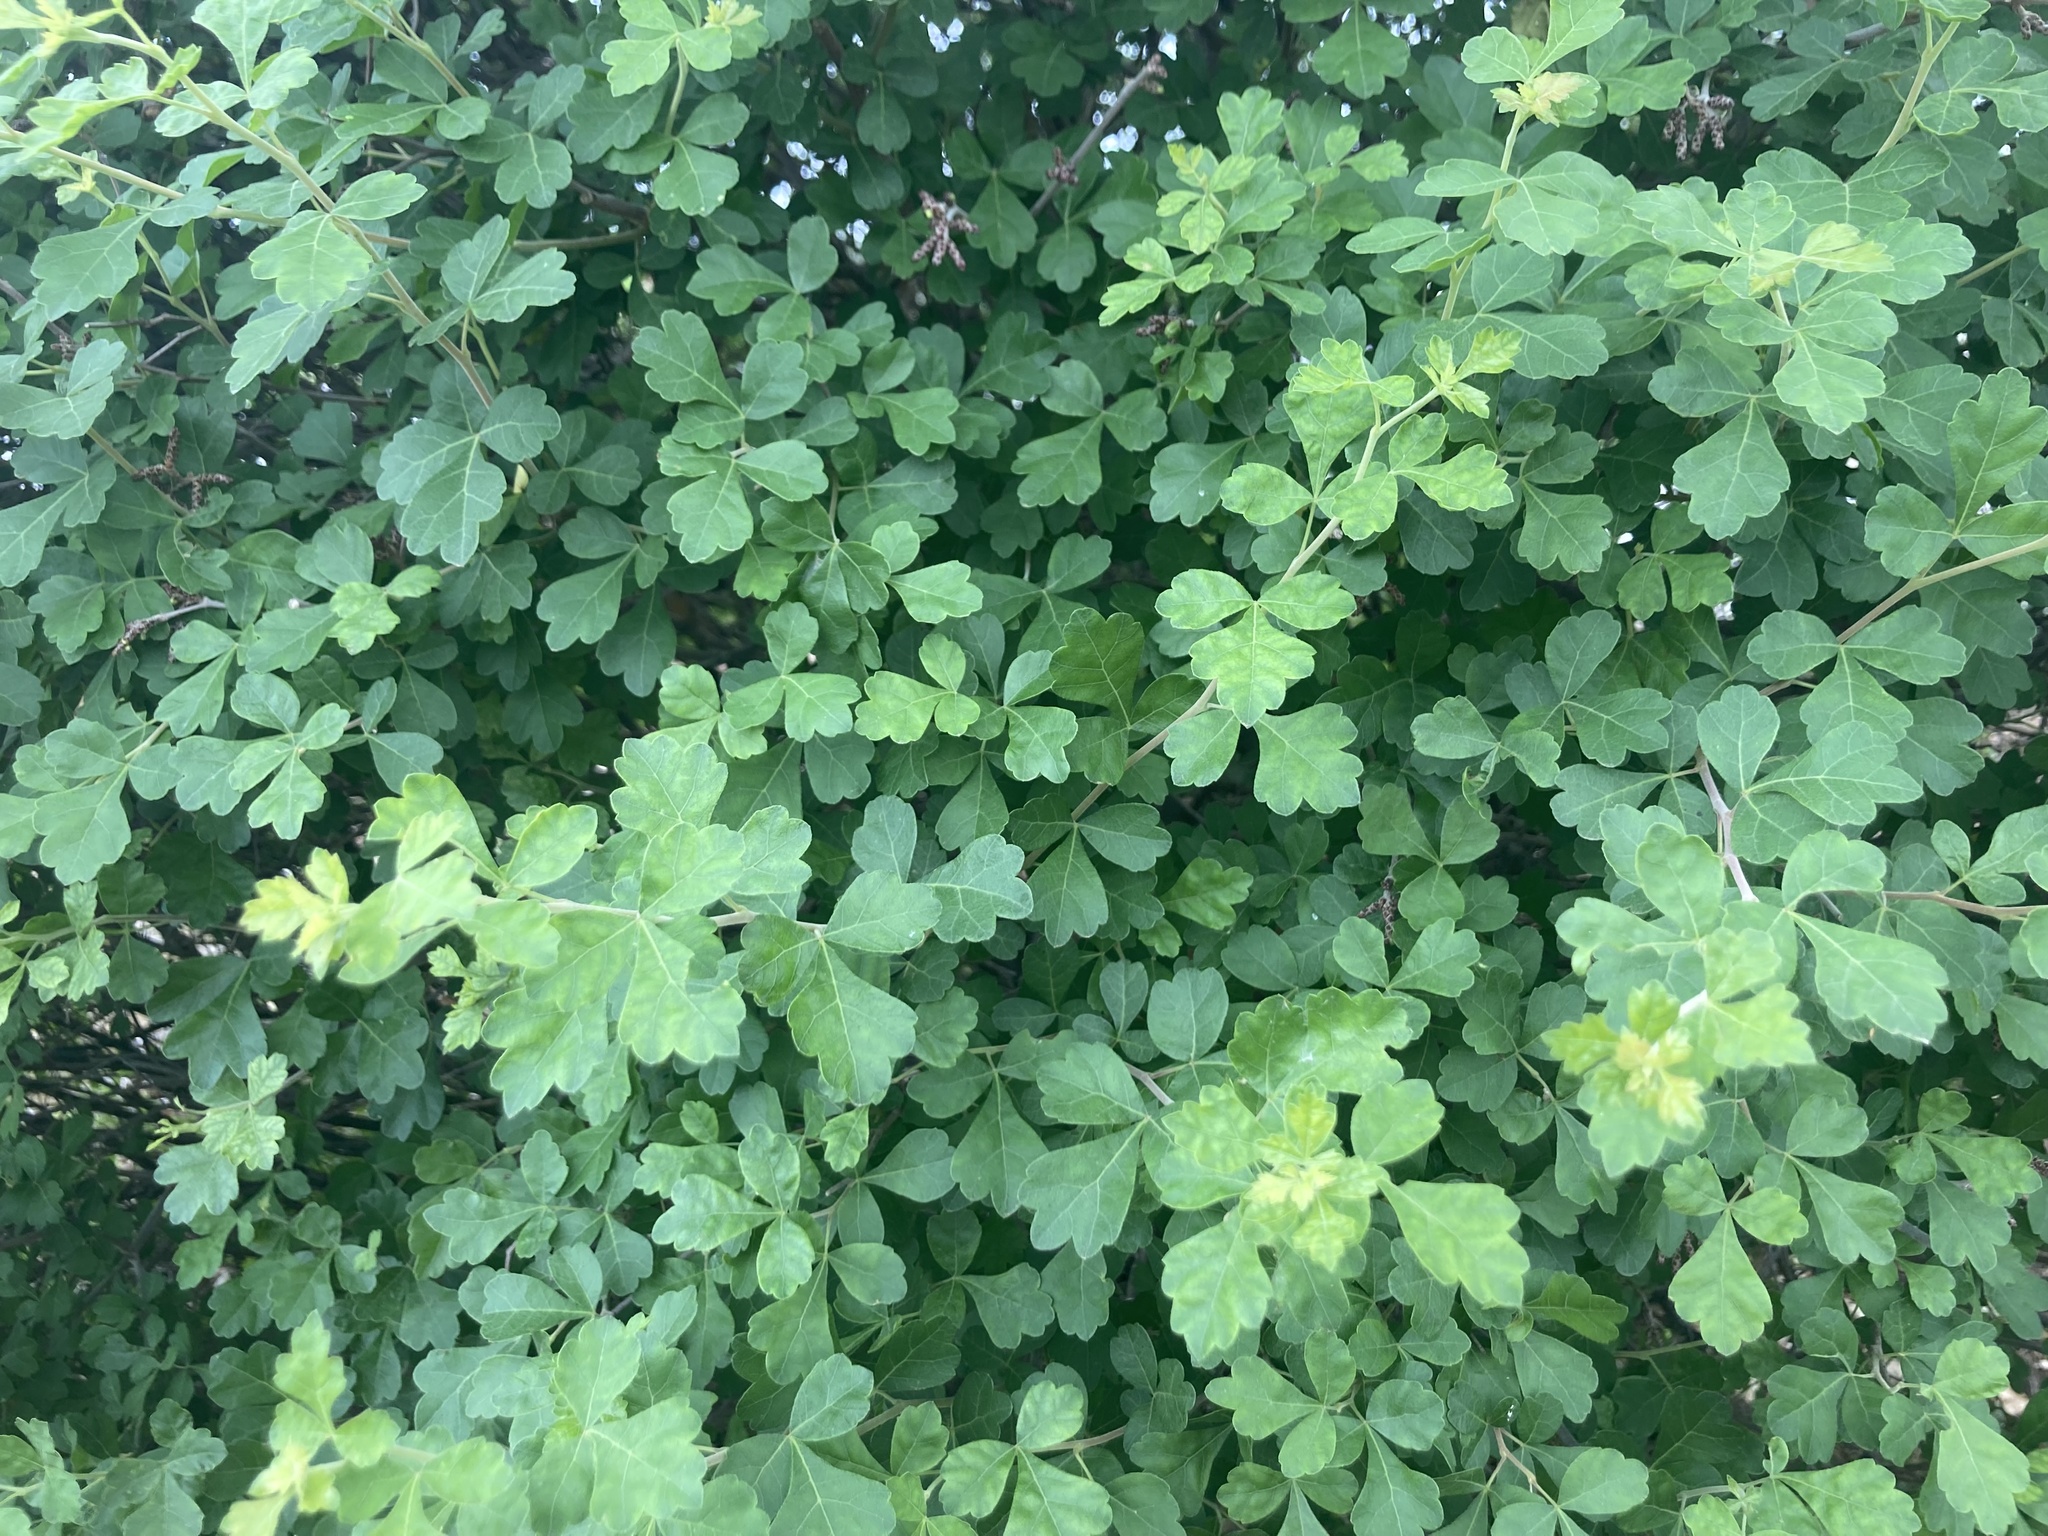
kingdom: Plantae
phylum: Tracheophyta
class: Magnoliopsida
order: Sapindales
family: Anacardiaceae
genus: Rhus
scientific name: Rhus aromatica
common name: Aromatic sumac
